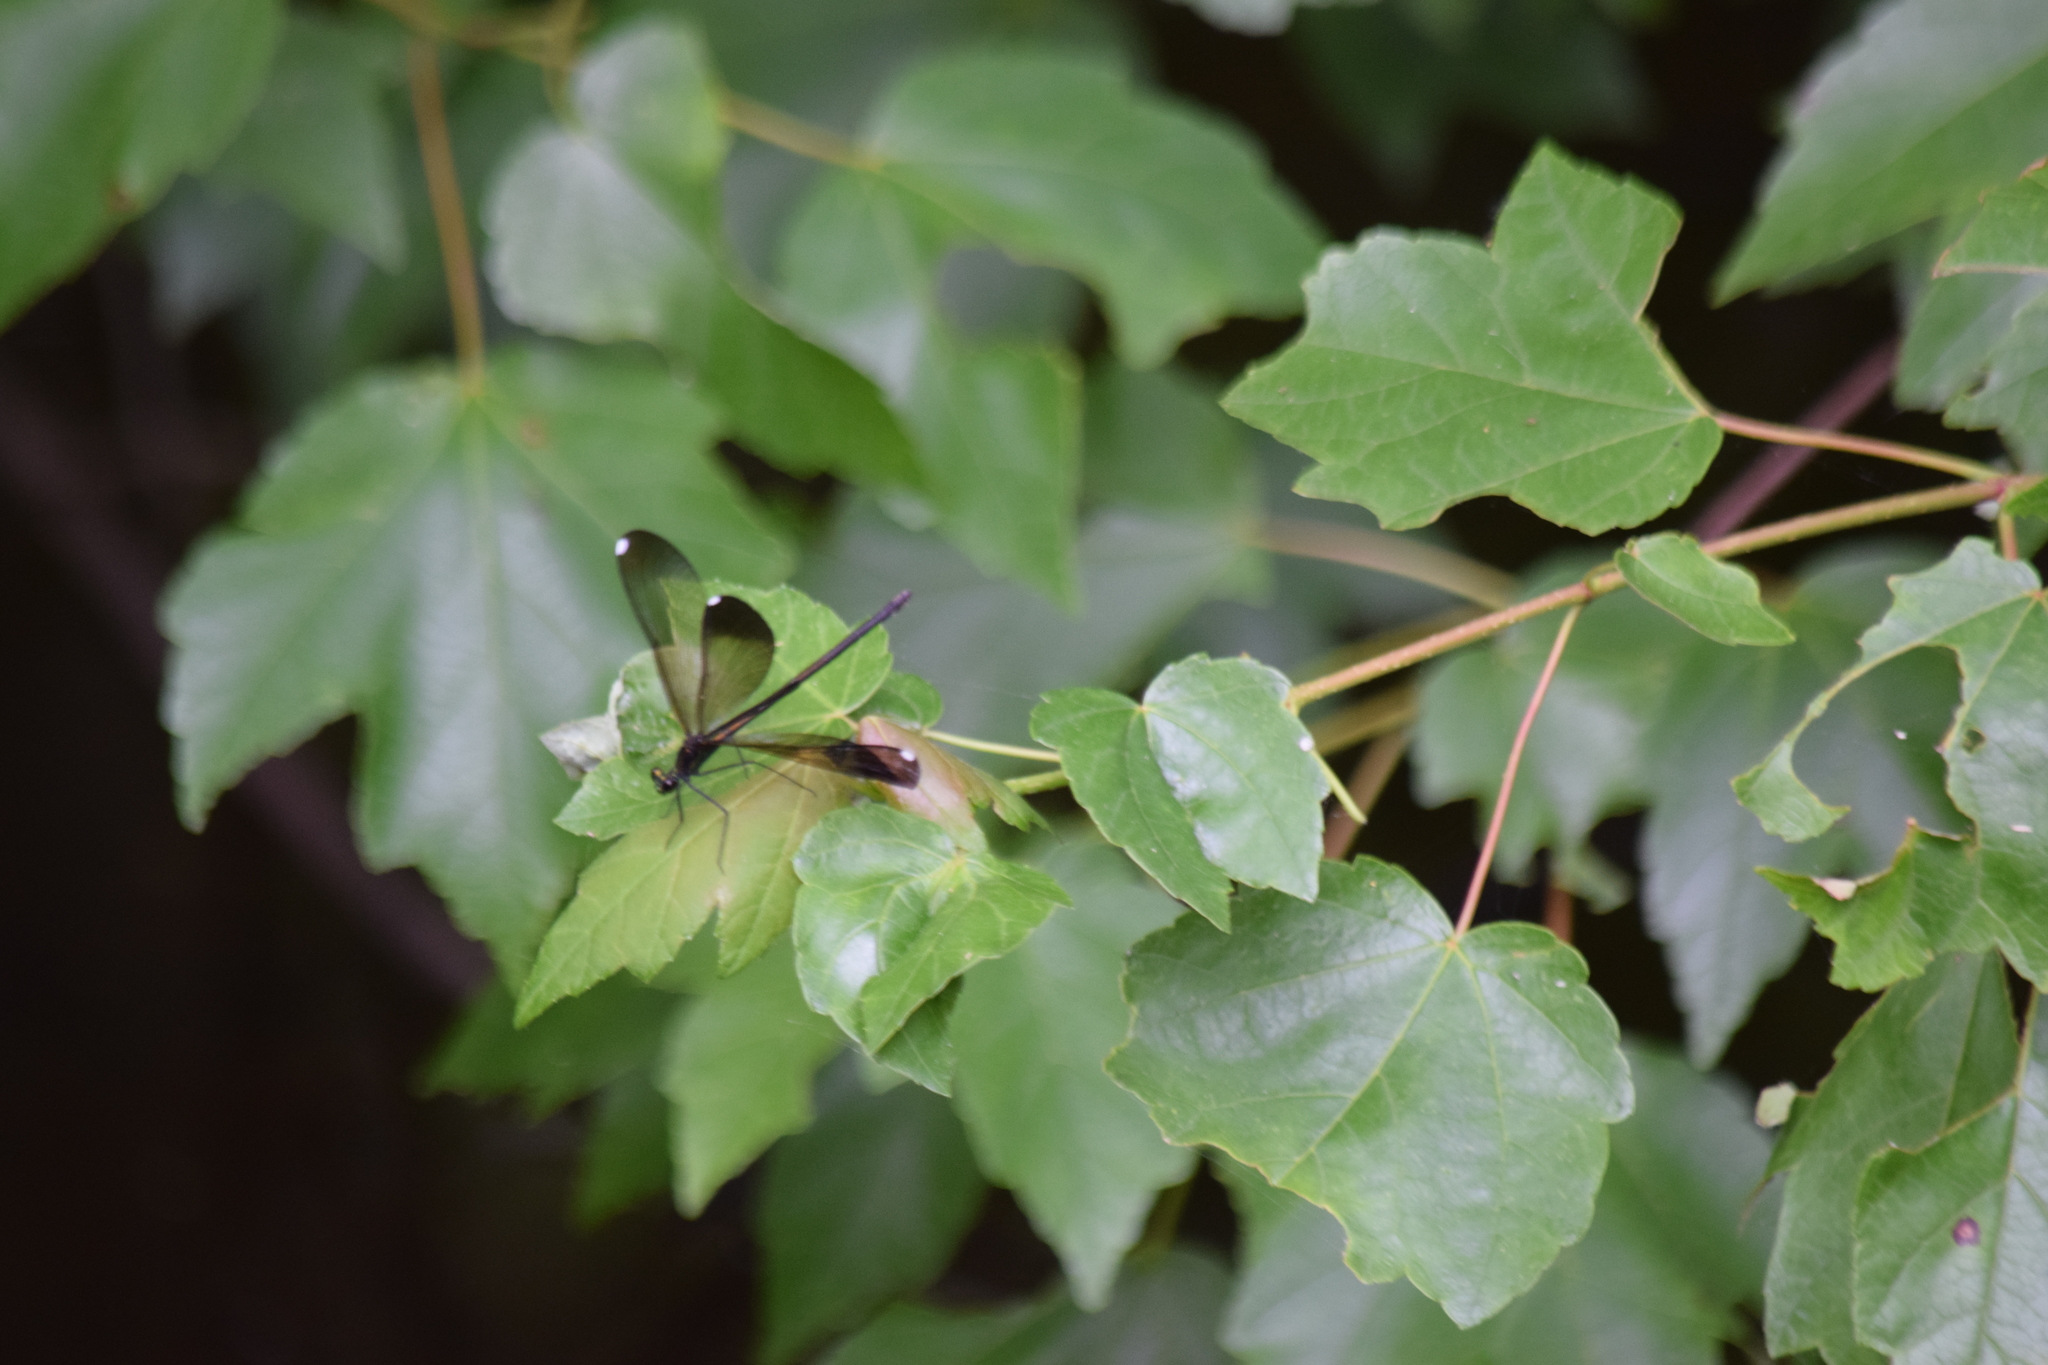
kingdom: Animalia
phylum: Arthropoda
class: Insecta
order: Odonata
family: Calopterygidae
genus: Calopteryx
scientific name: Calopteryx maculata
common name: Ebony jewelwing
